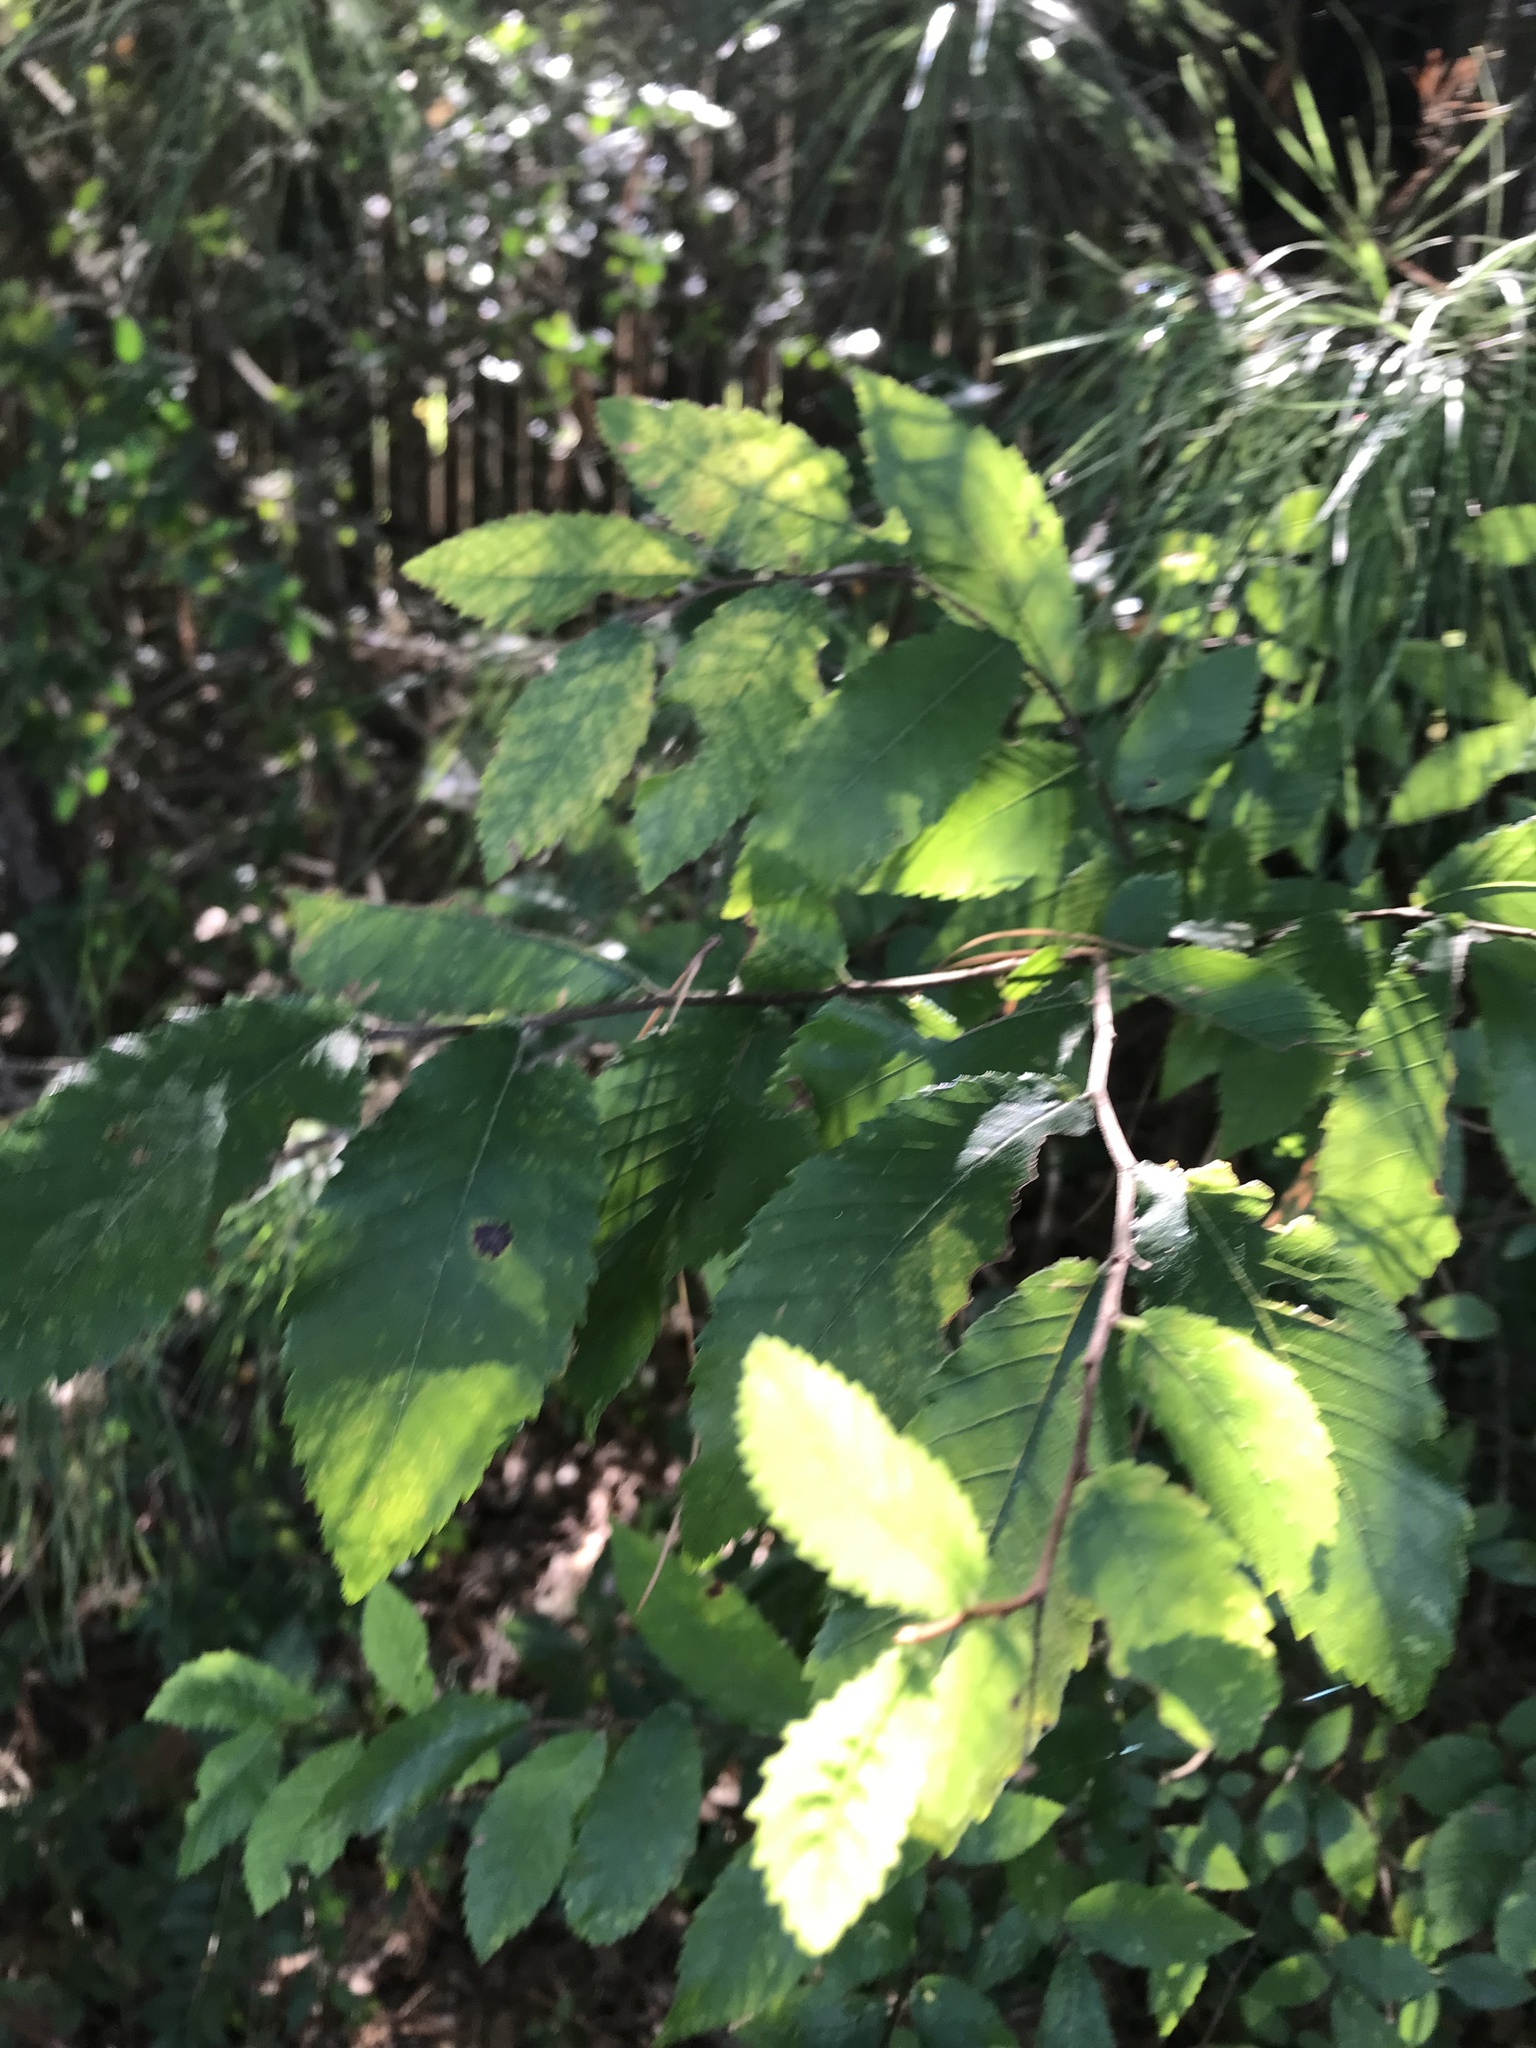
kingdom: Plantae
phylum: Tracheophyta
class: Magnoliopsida
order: Rosales
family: Ulmaceae
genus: Ulmus
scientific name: Ulmus alata
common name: Winged elm
